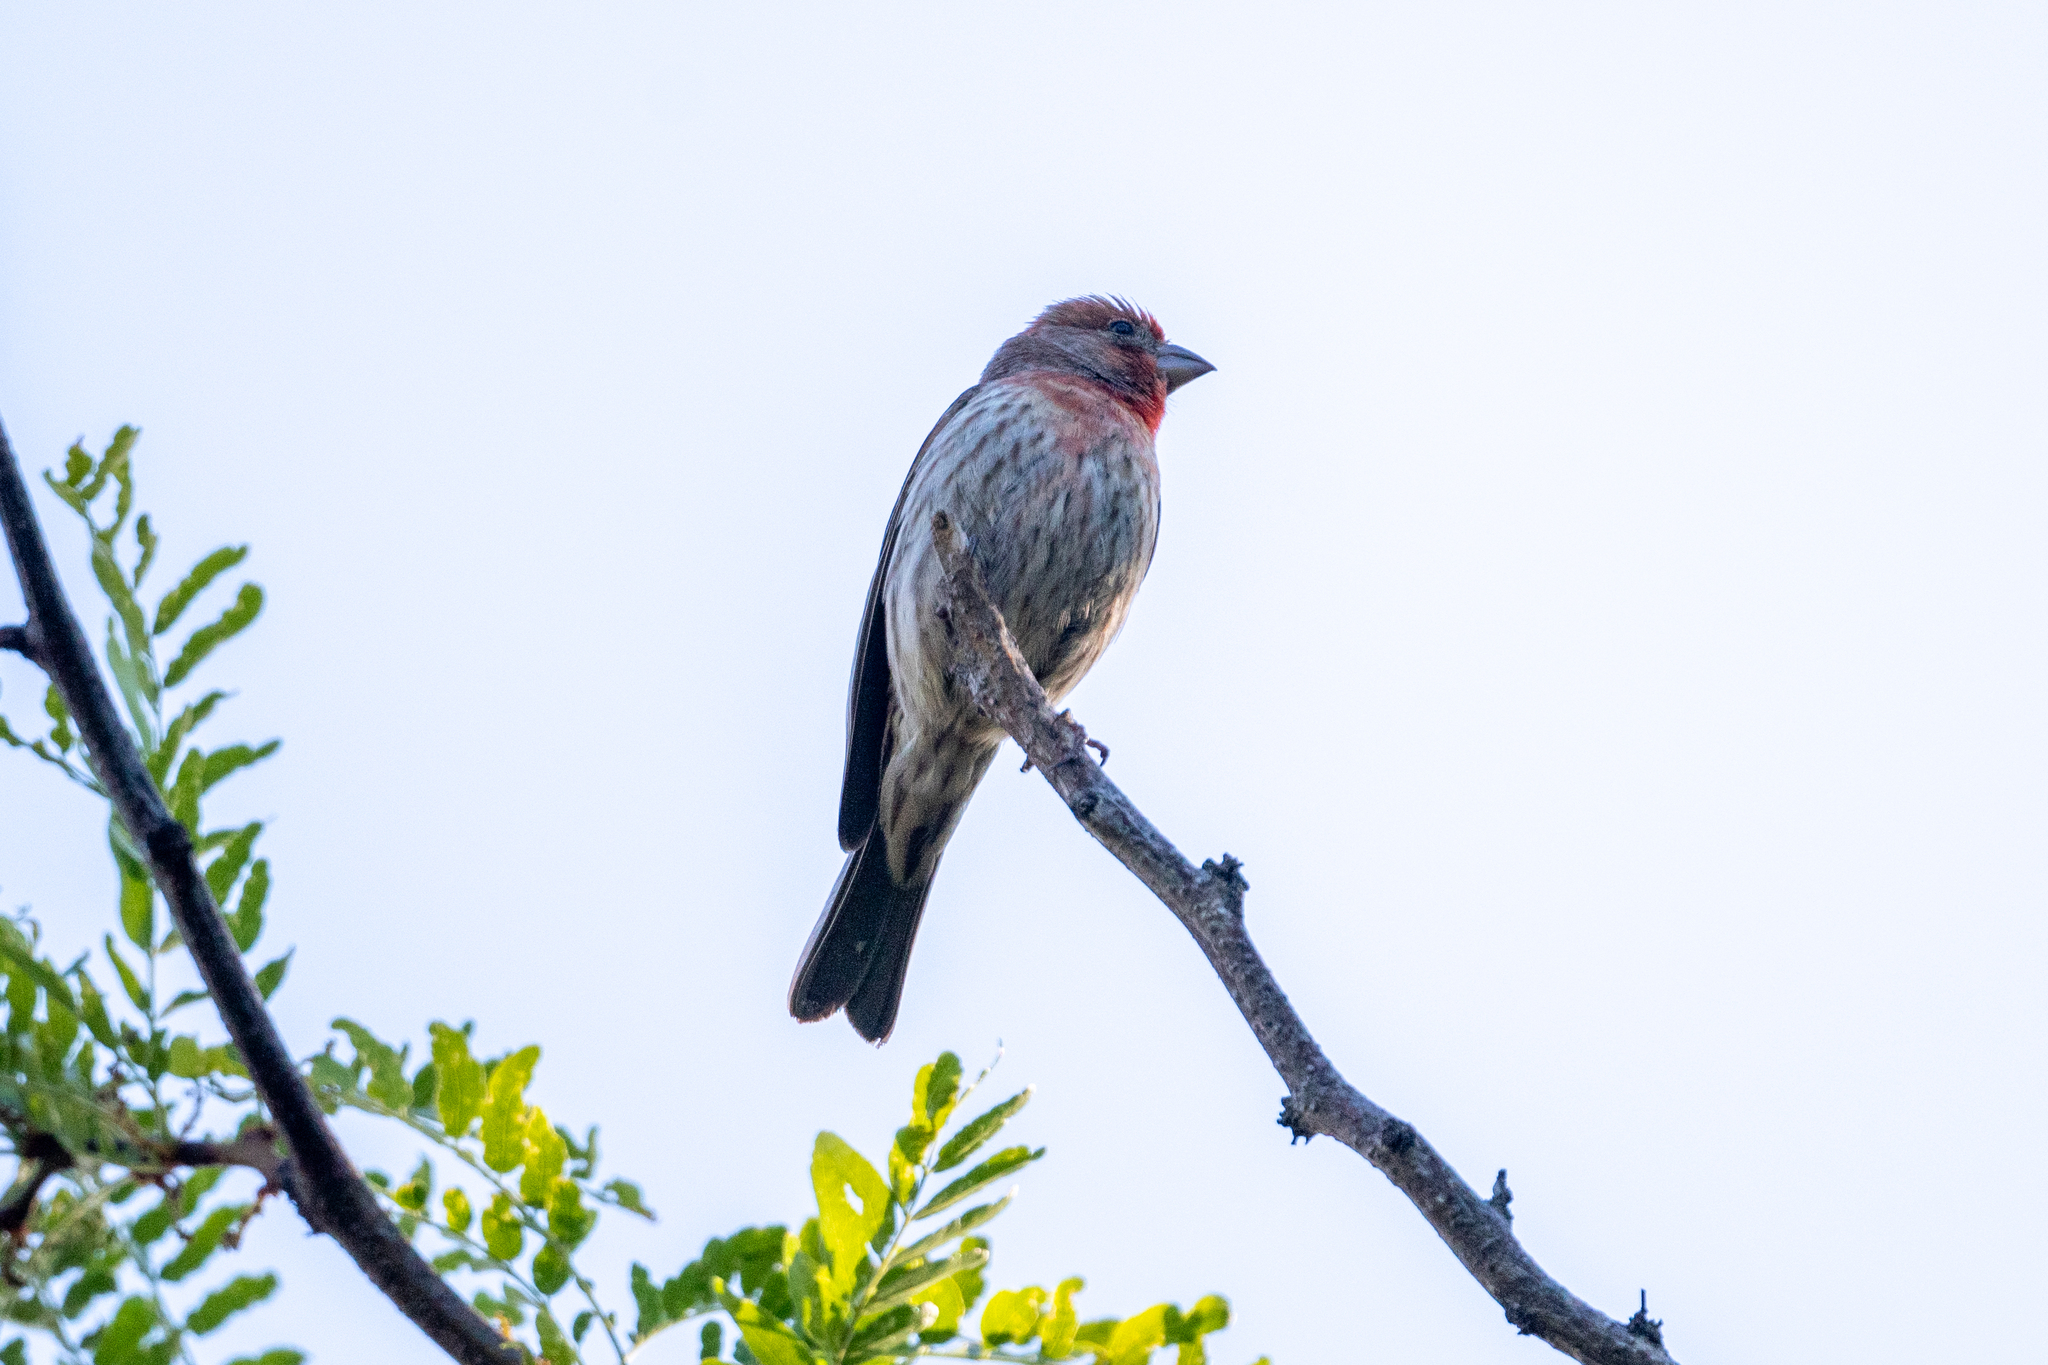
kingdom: Animalia
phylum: Chordata
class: Aves
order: Passeriformes
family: Fringillidae
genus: Haemorhous
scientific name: Haemorhous mexicanus
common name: House finch
